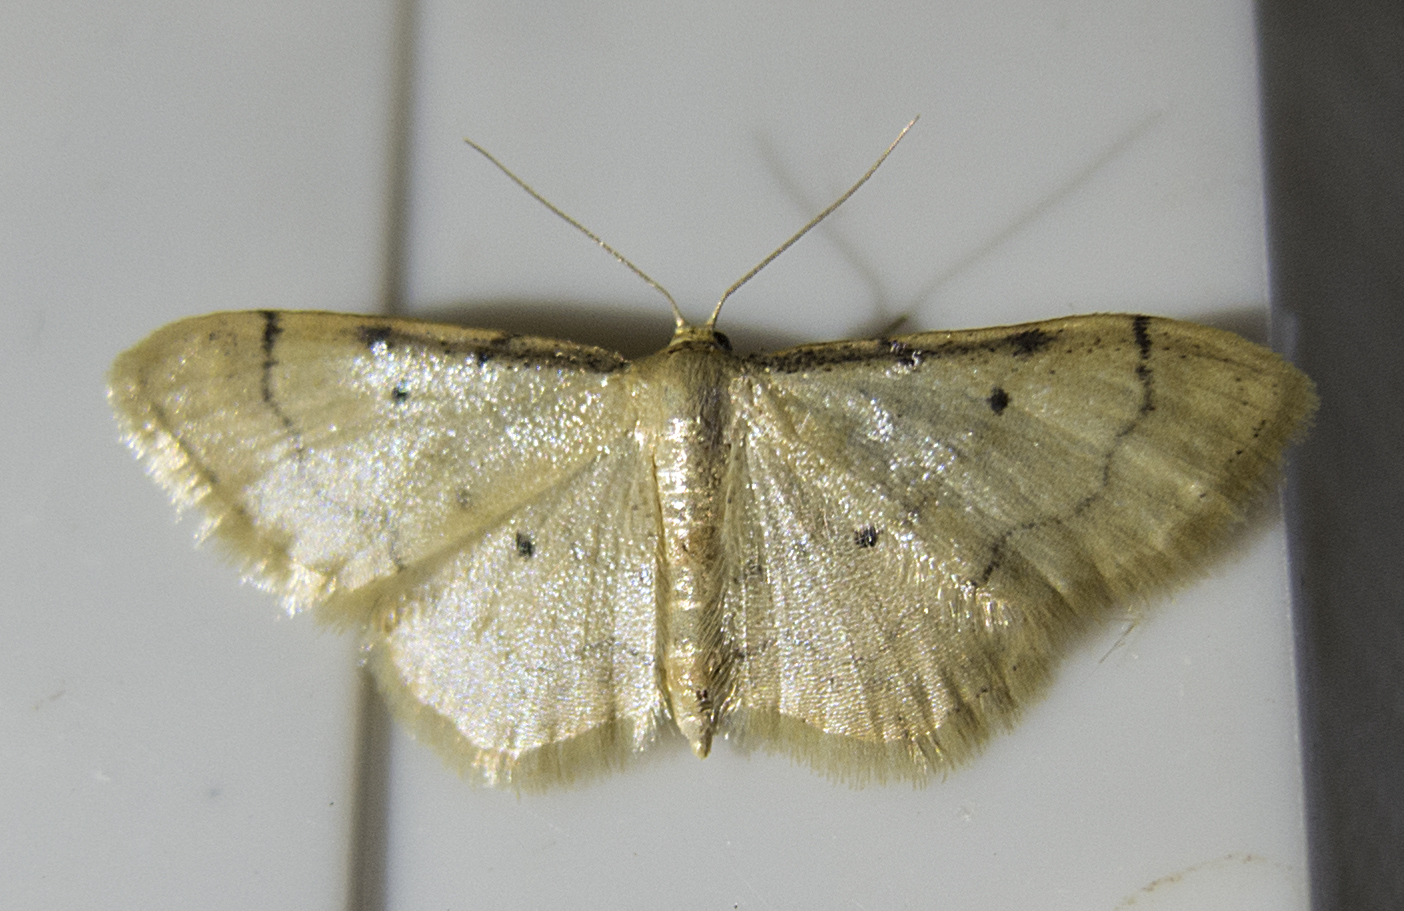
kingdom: Animalia
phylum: Arthropoda
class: Insecta
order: Lepidoptera
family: Geometridae
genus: Idaea
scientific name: Idaea politaria
